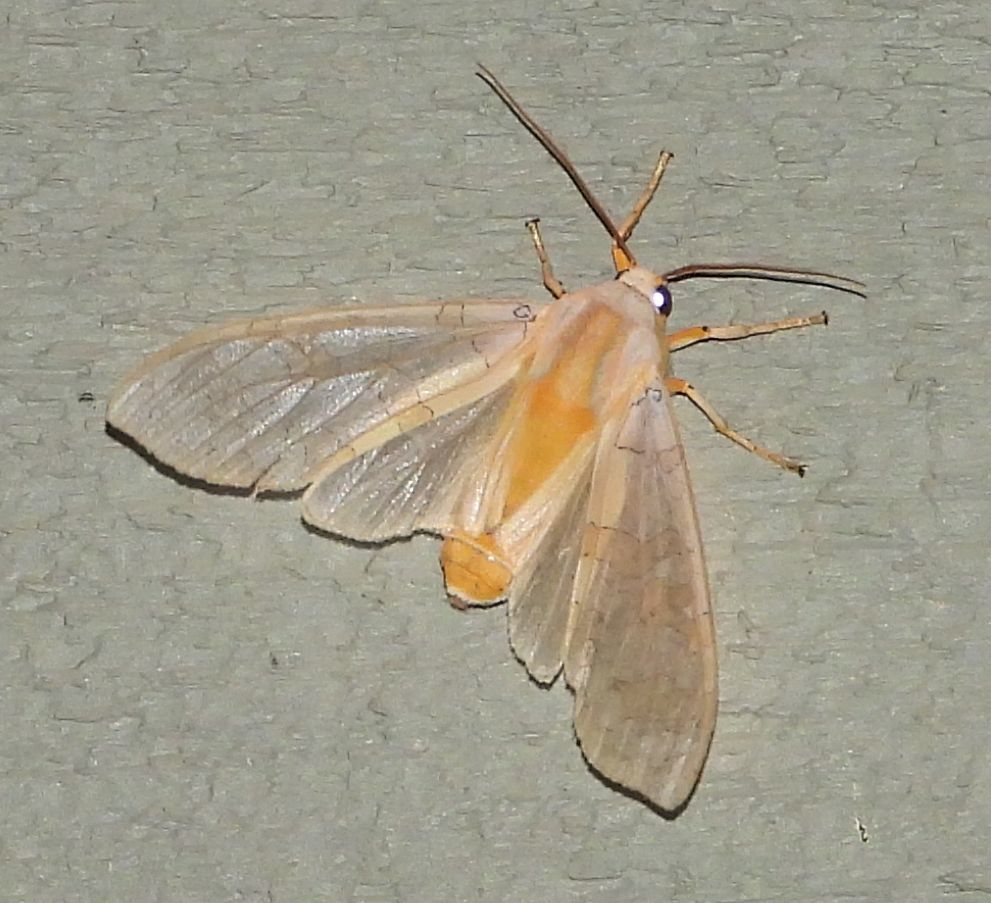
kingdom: Animalia
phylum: Arthropoda
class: Insecta
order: Lepidoptera
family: Erebidae
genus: Halysidota
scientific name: Halysidota tessellaris
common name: Banded tussock moth
